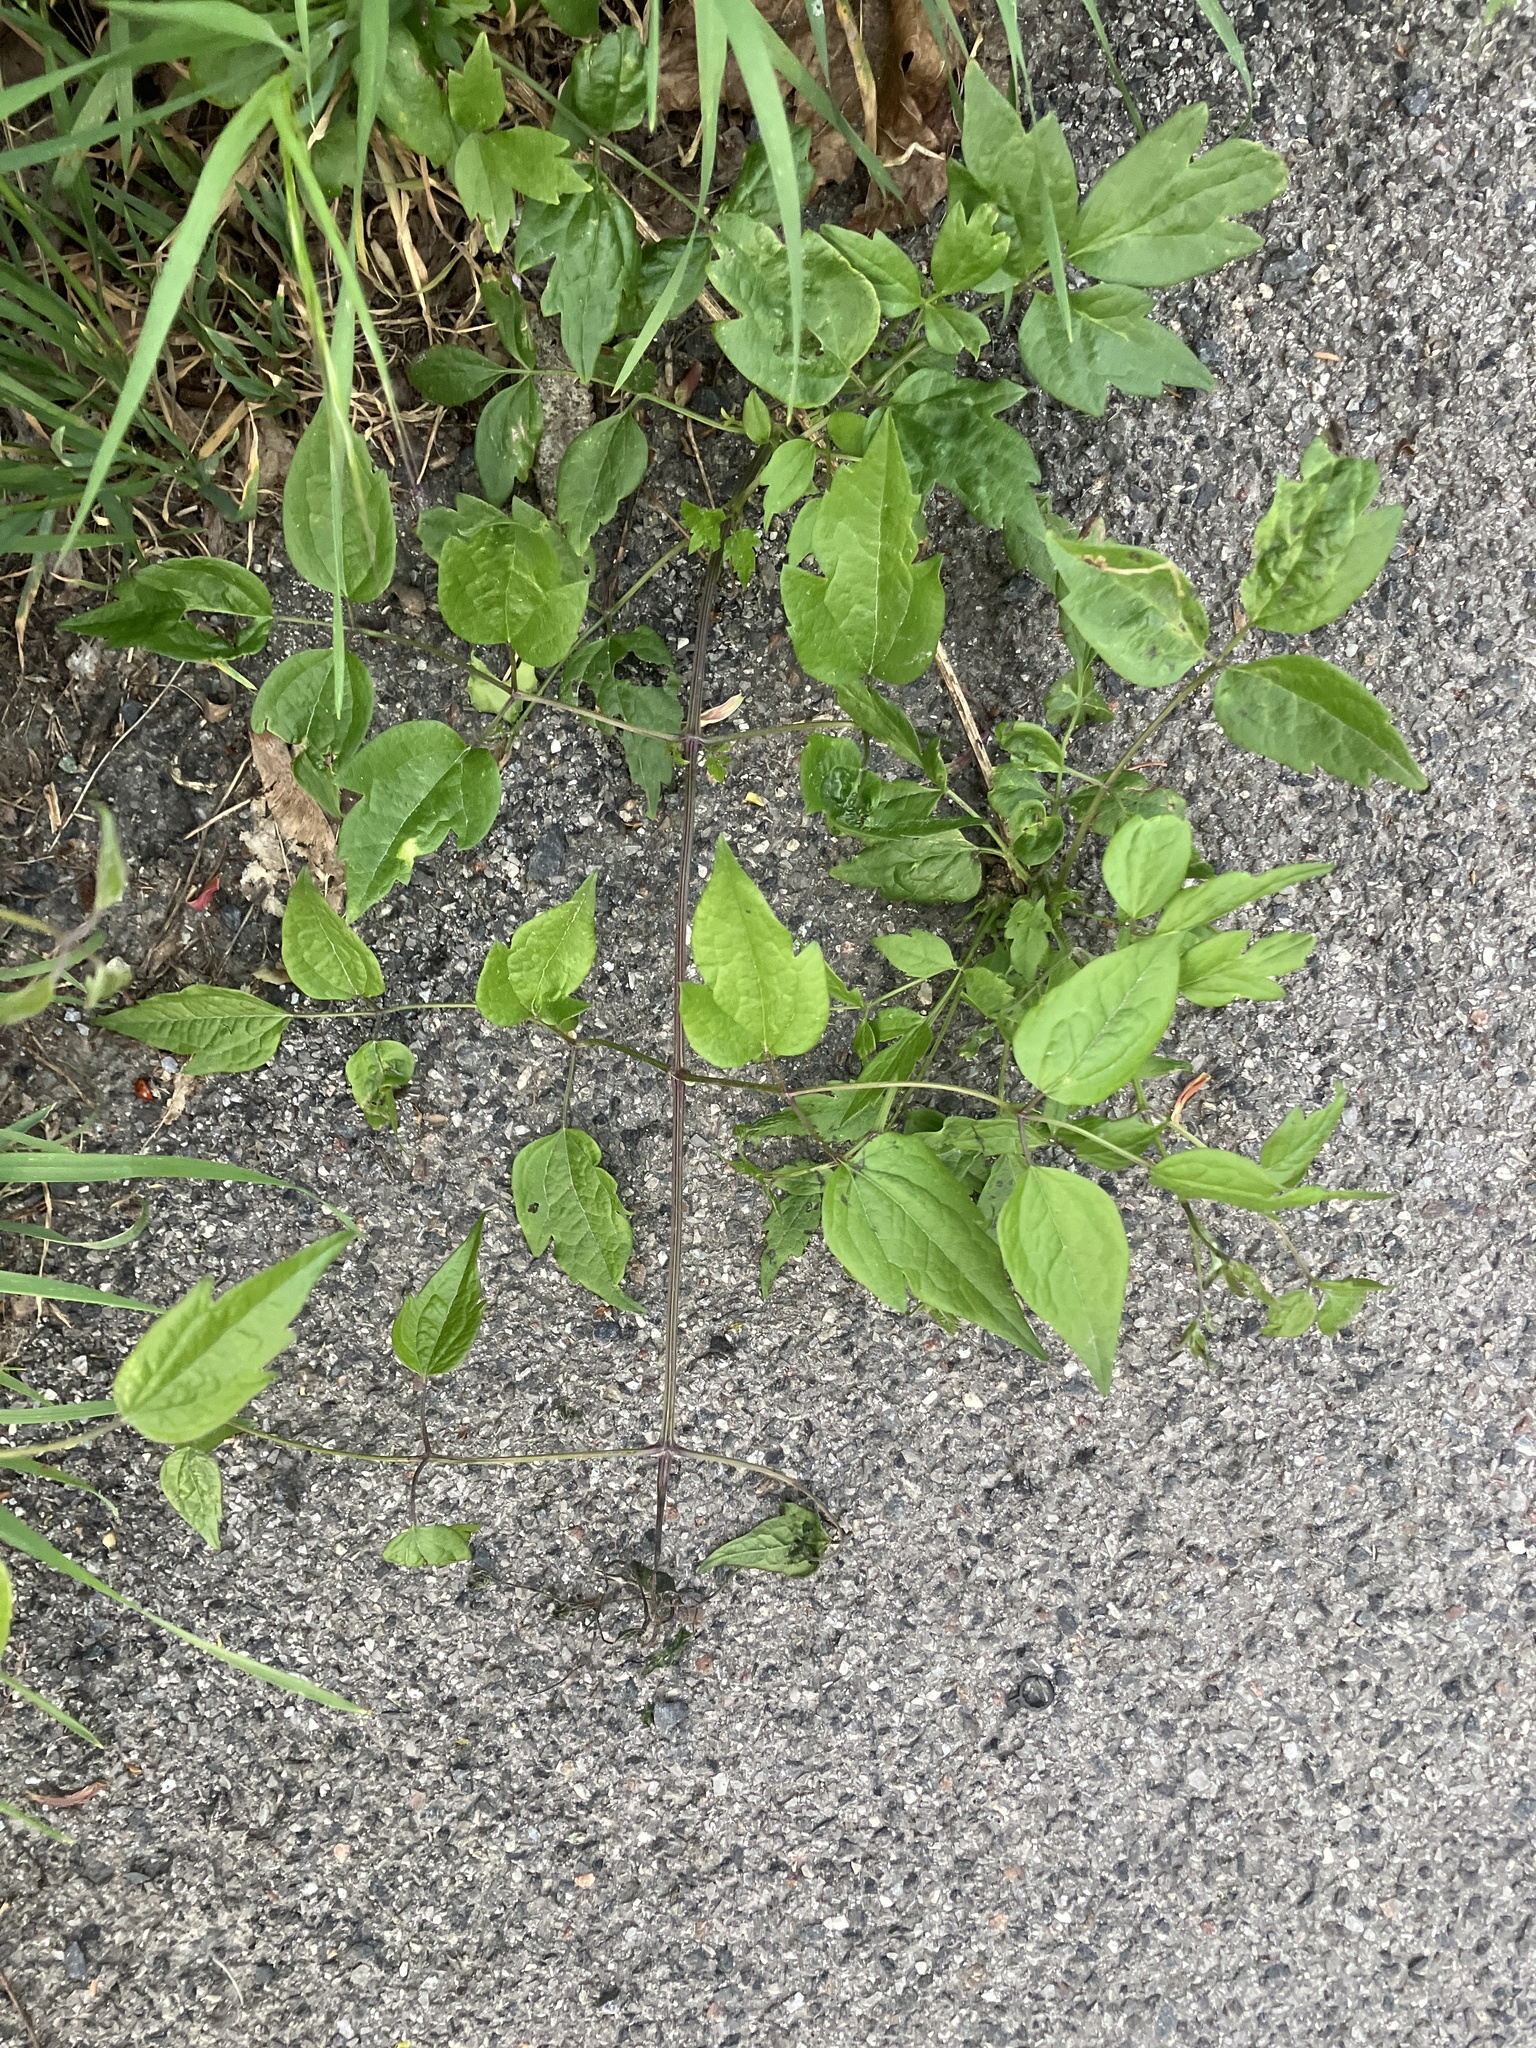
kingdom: Plantae
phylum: Tracheophyta
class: Magnoliopsida
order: Ranunculales
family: Ranunculaceae
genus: Clematis
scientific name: Clematis vitalba
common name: Evergreen clematis
